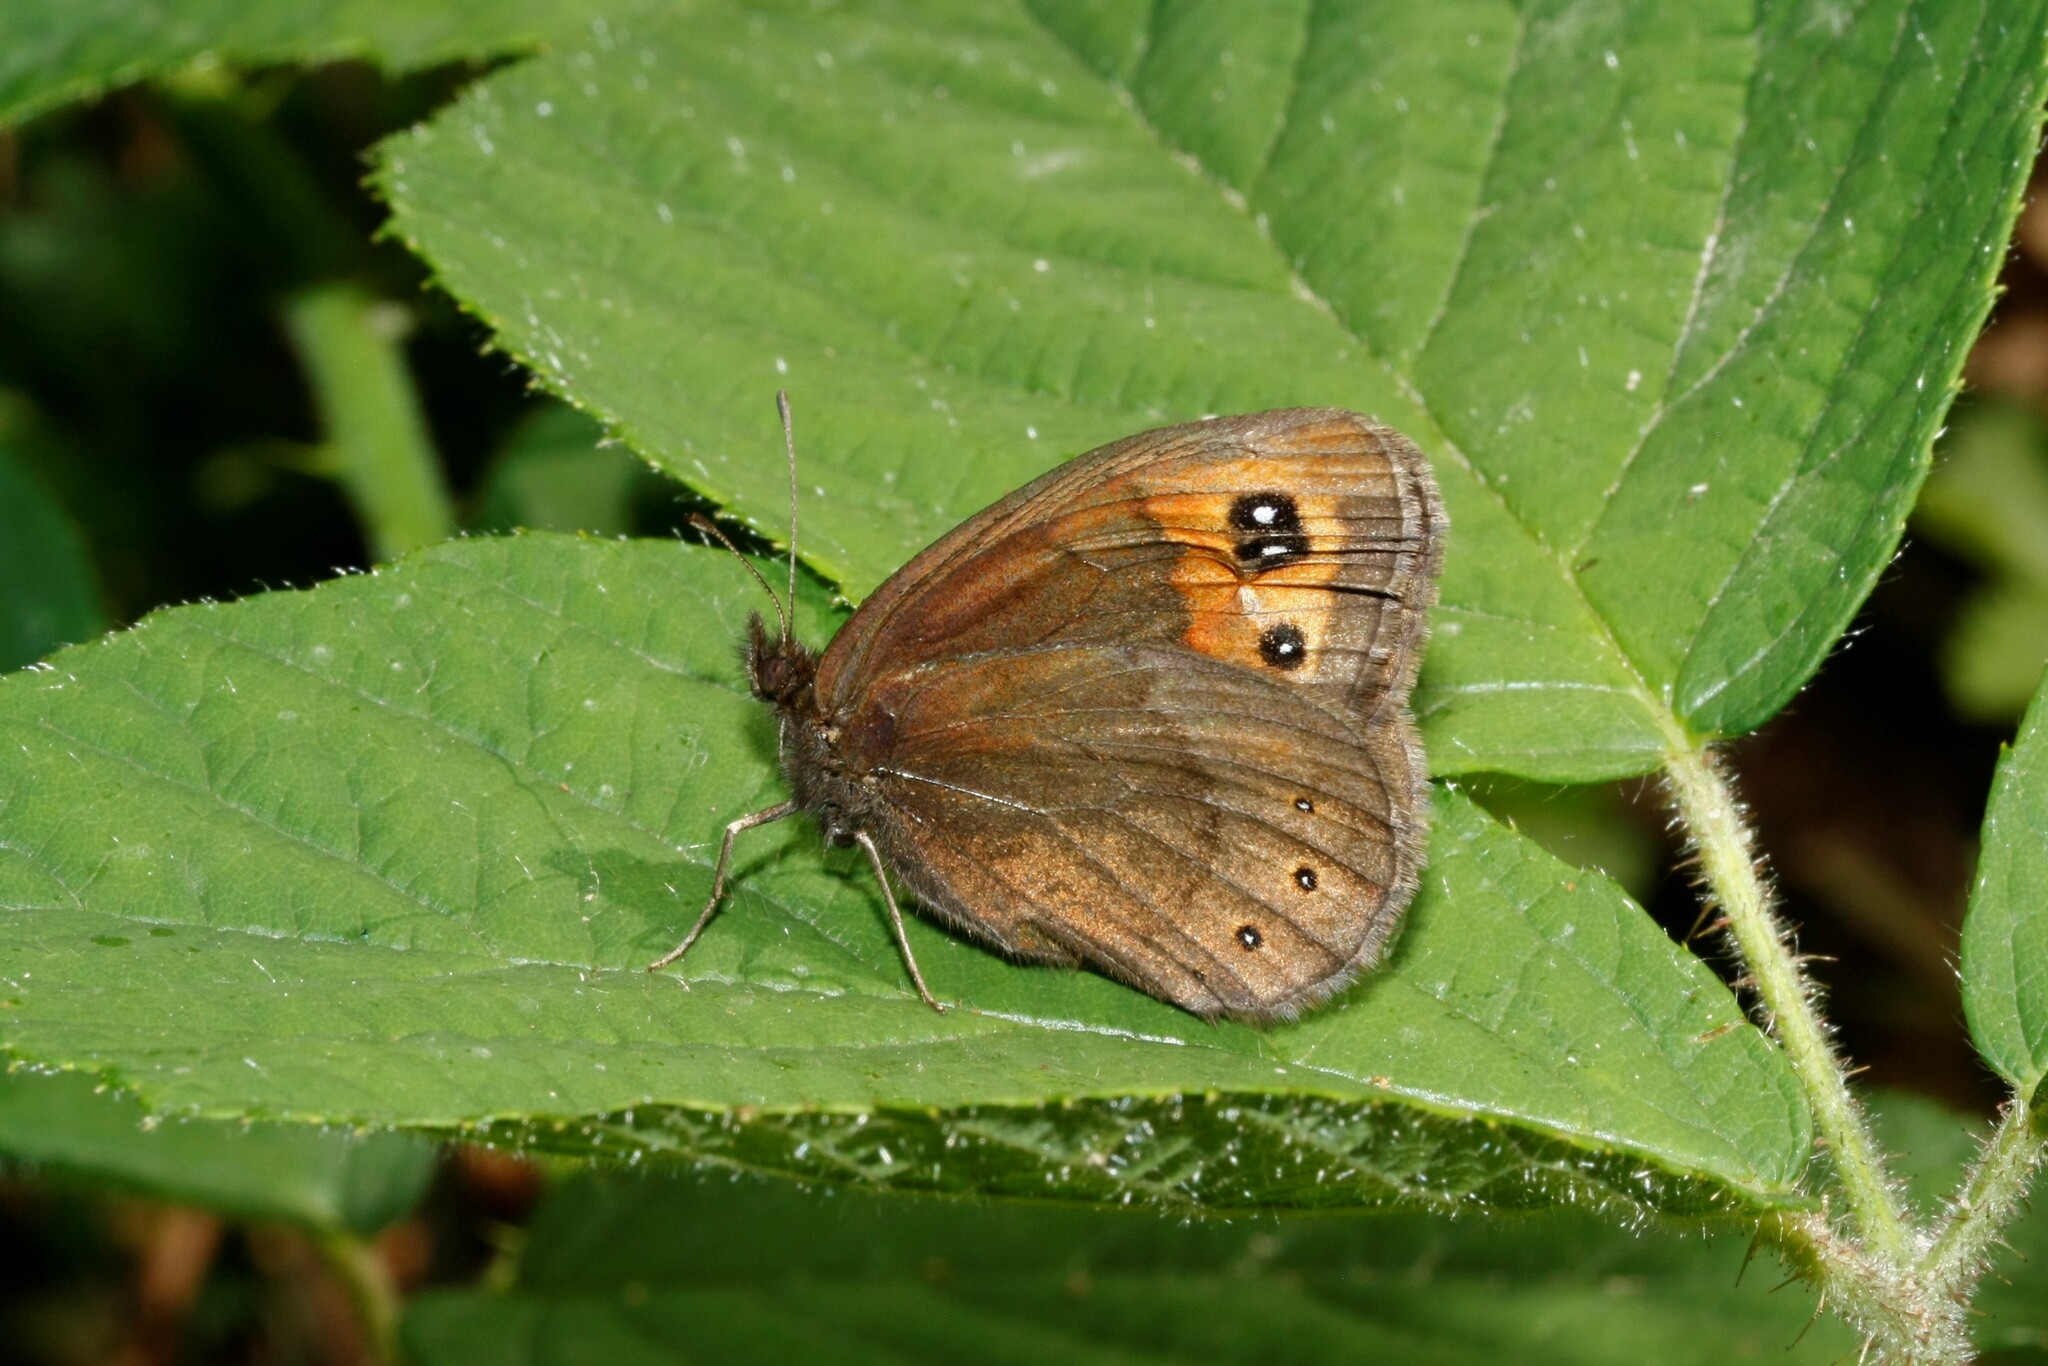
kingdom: Animalia
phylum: Arthropoda
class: Insecta
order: Lepidoptera
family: Nymphalidae
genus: Erebia
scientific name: Erebia meolans
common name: Piedmont ringlet
